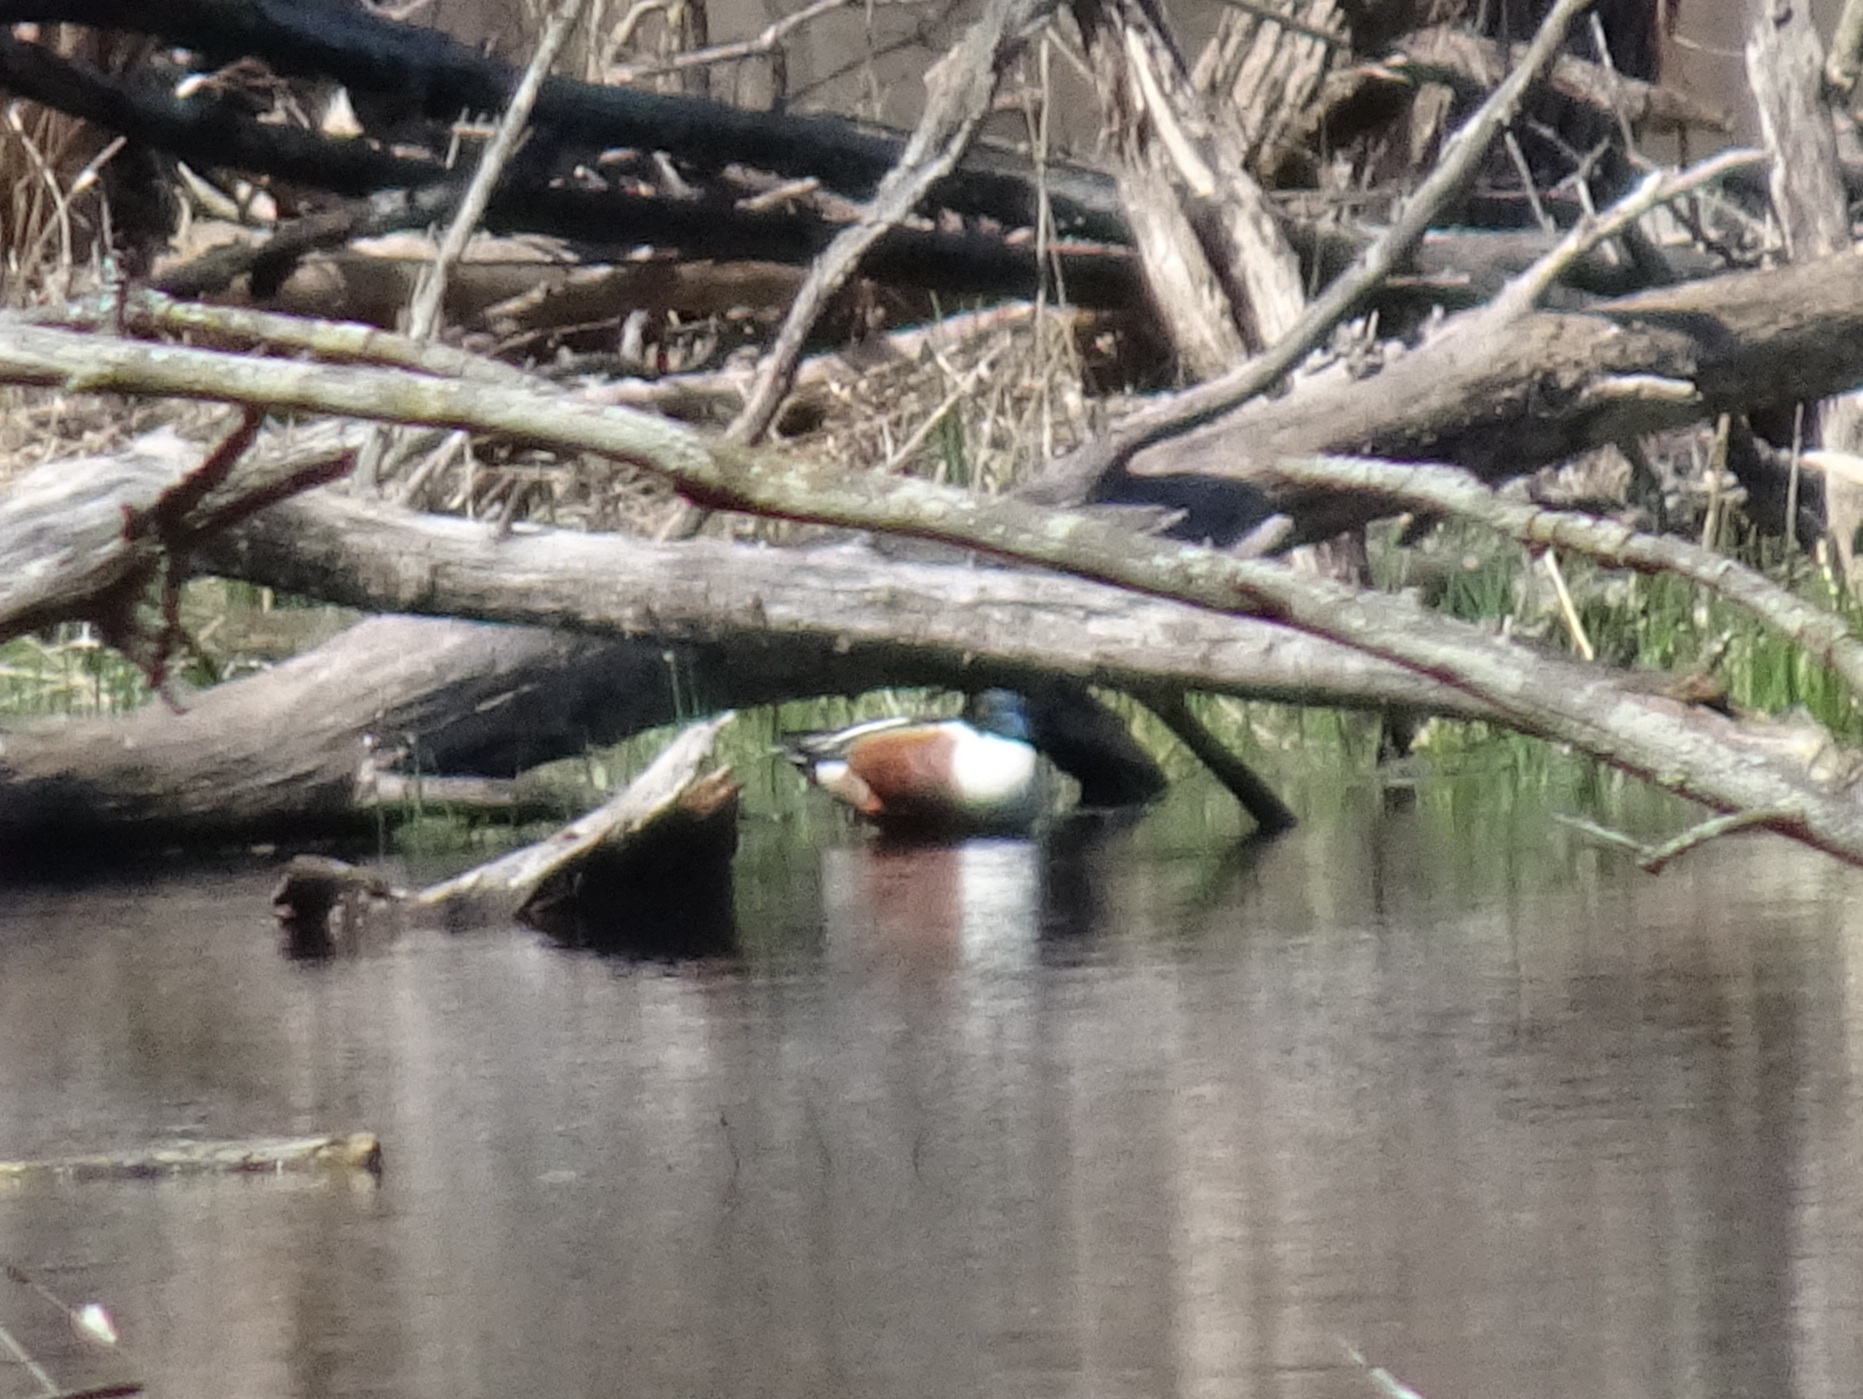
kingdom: Animalia
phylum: Chordata
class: Aves
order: Anseriformes
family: Anatidae
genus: Spatula
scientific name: Spatula clypeata
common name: Northern shoveler
